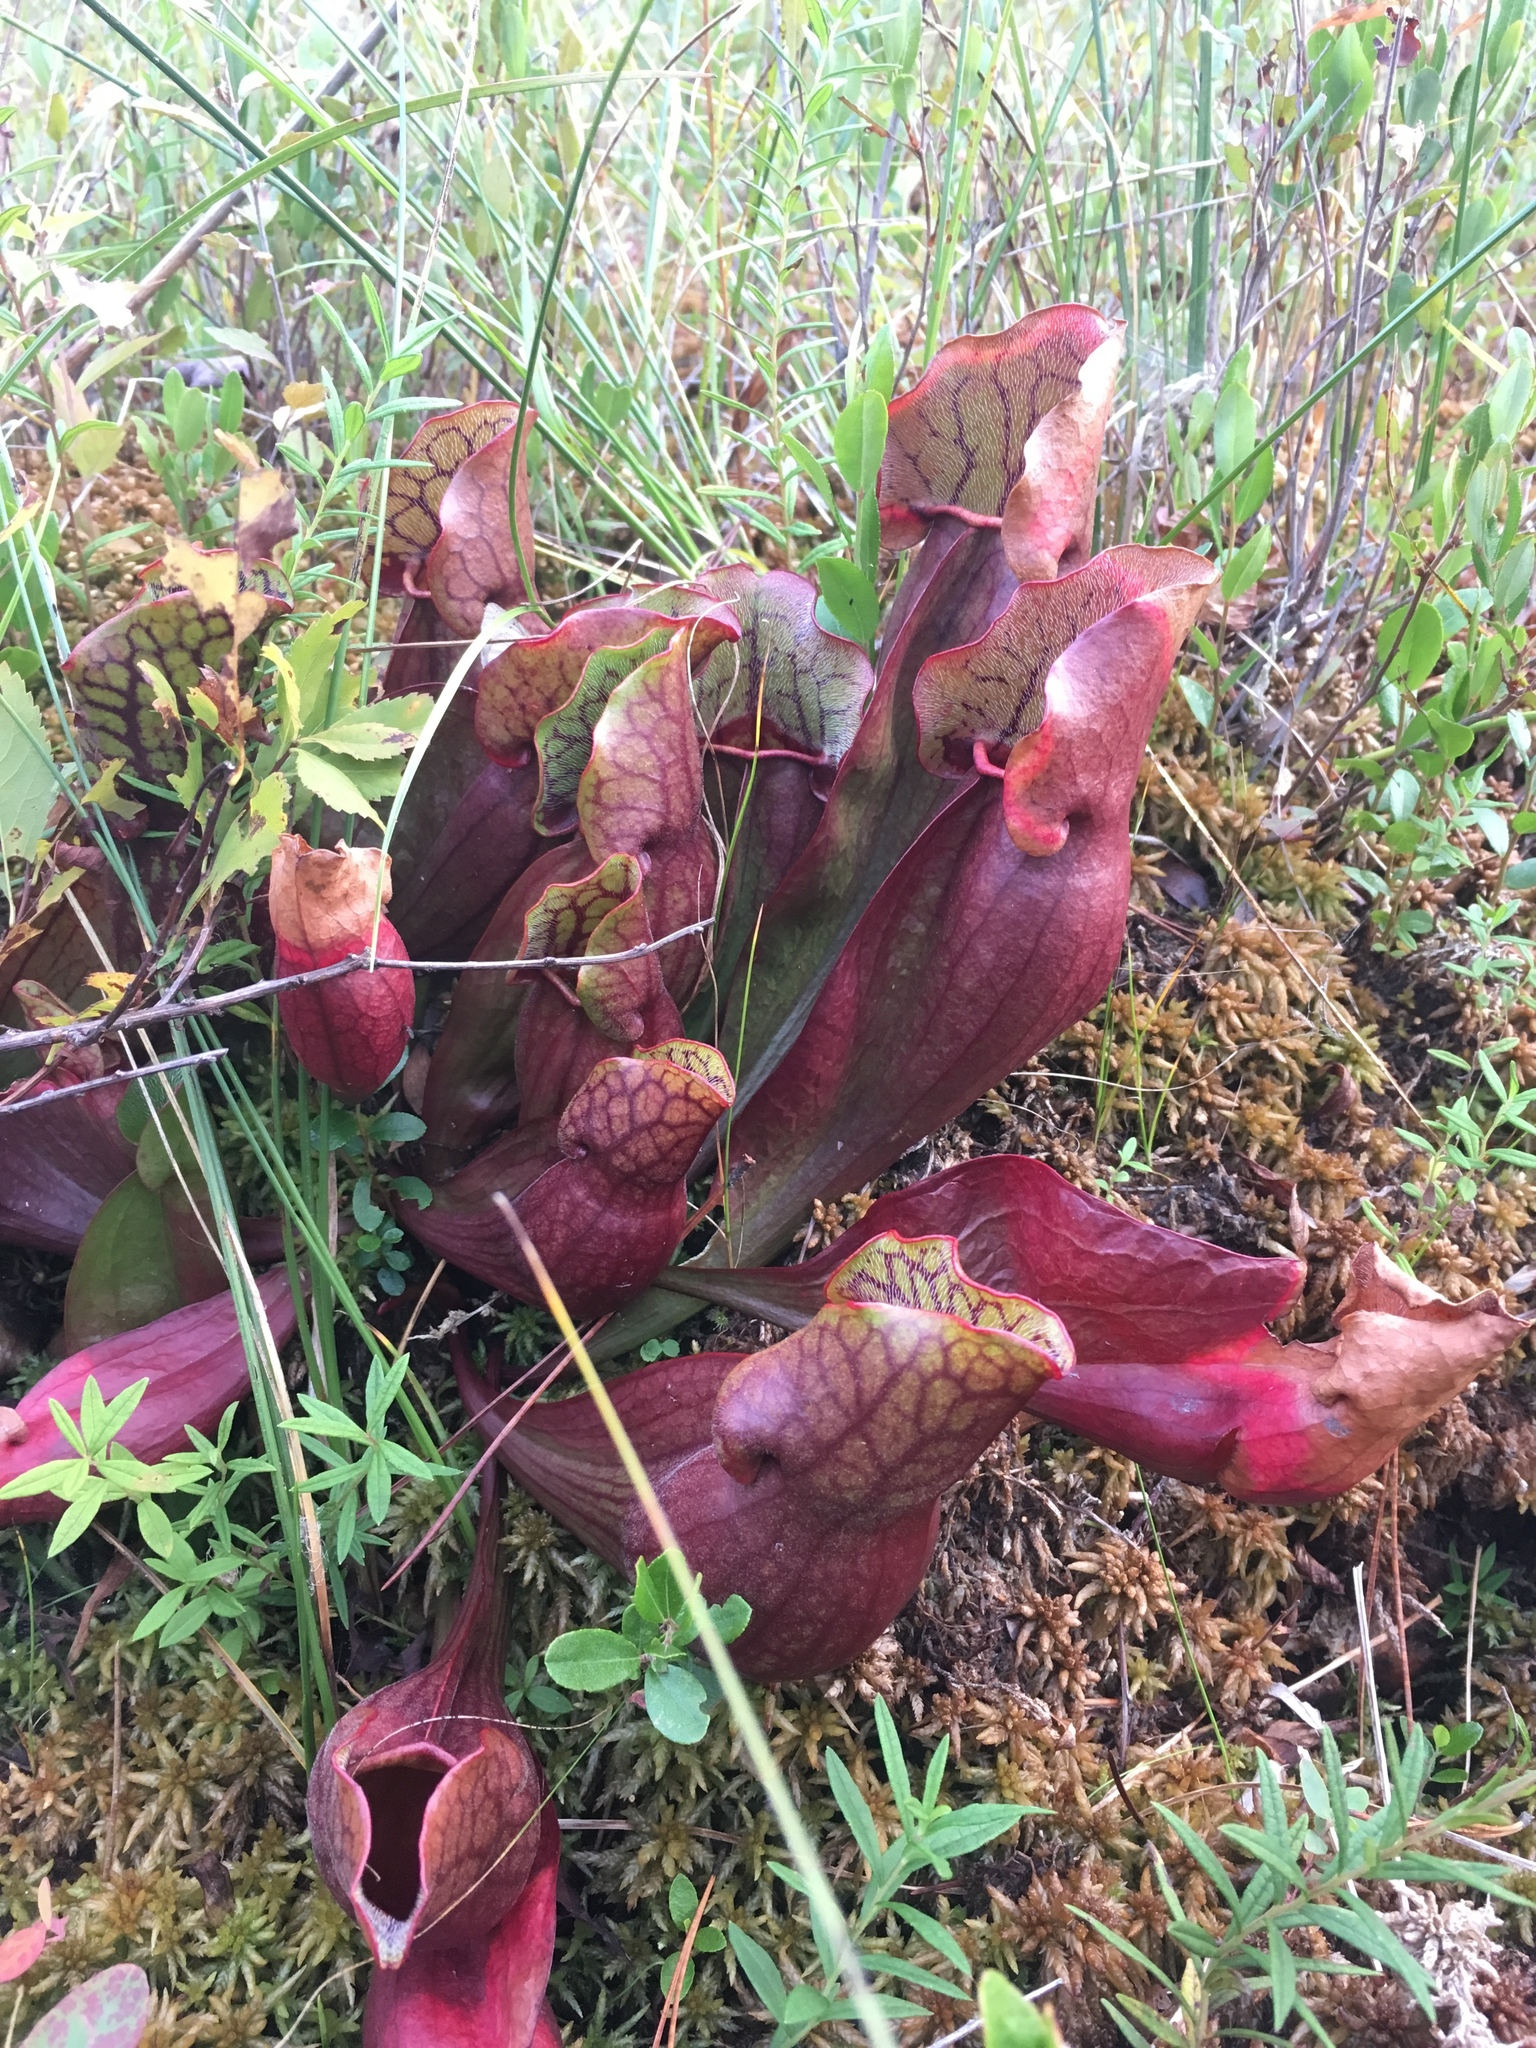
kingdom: Plantae
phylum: Tracheophyta
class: Magnoliopsida
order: Ericales
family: Sarraceniaceae
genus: Sarracenia
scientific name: Sarracenia purpurea
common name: Pitcherplant
